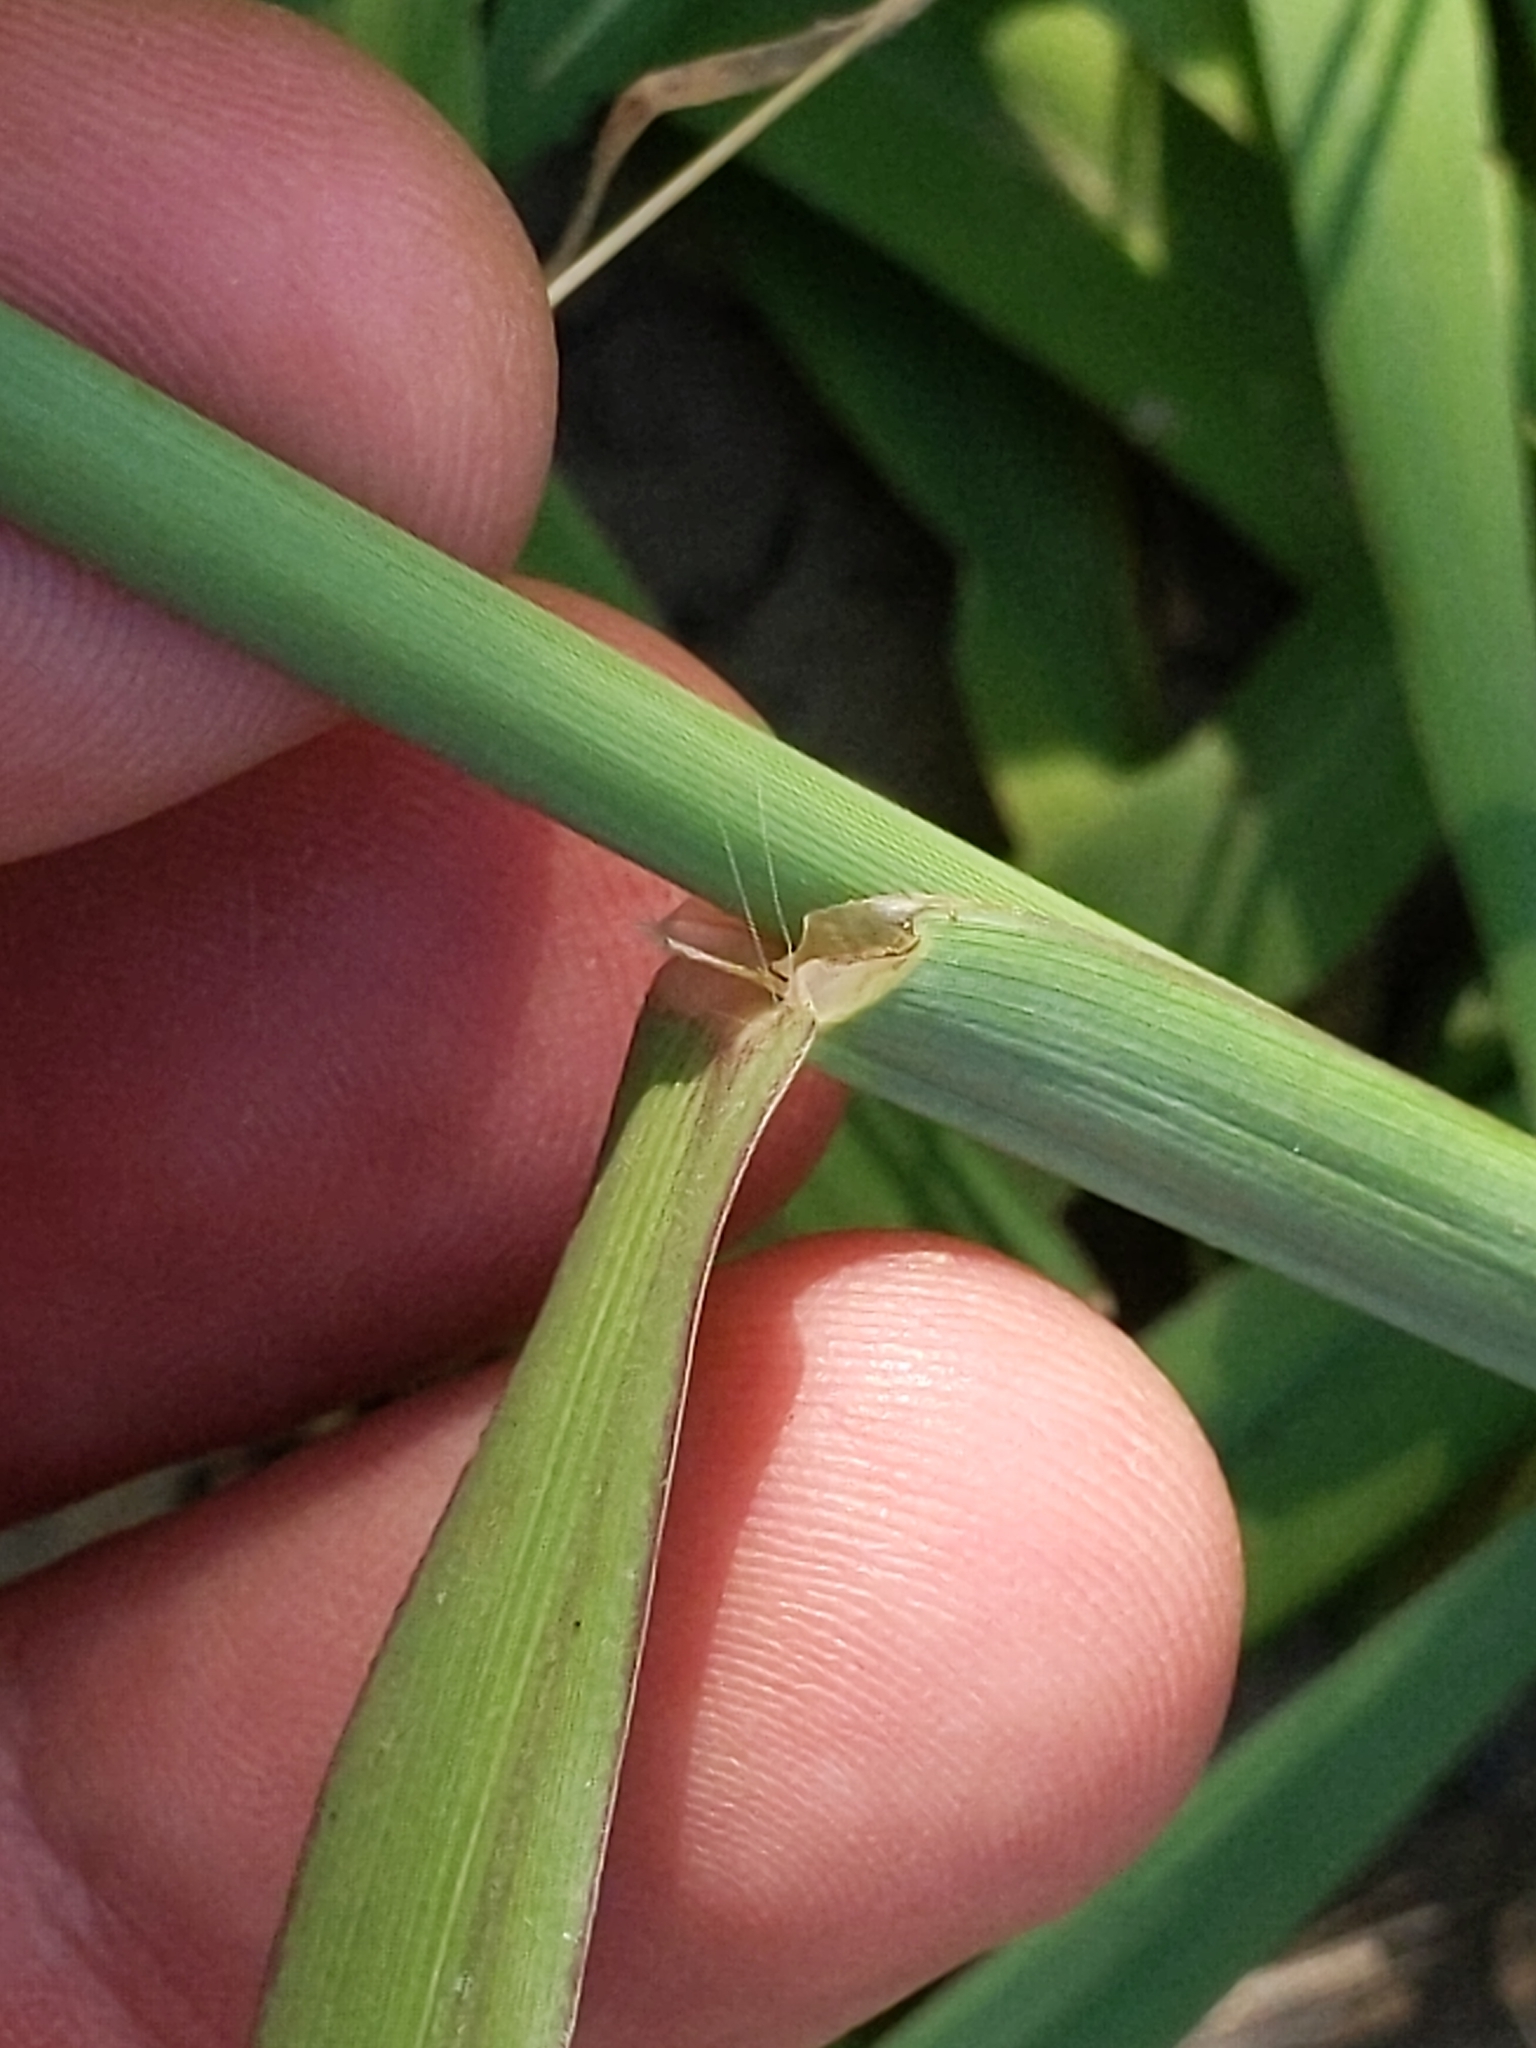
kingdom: Plantae
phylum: Tracheophyta
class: Liliopsida
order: Poales
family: Poaceae
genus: Paspalum
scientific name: Paspalum dilatatum
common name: Dallisgrass
